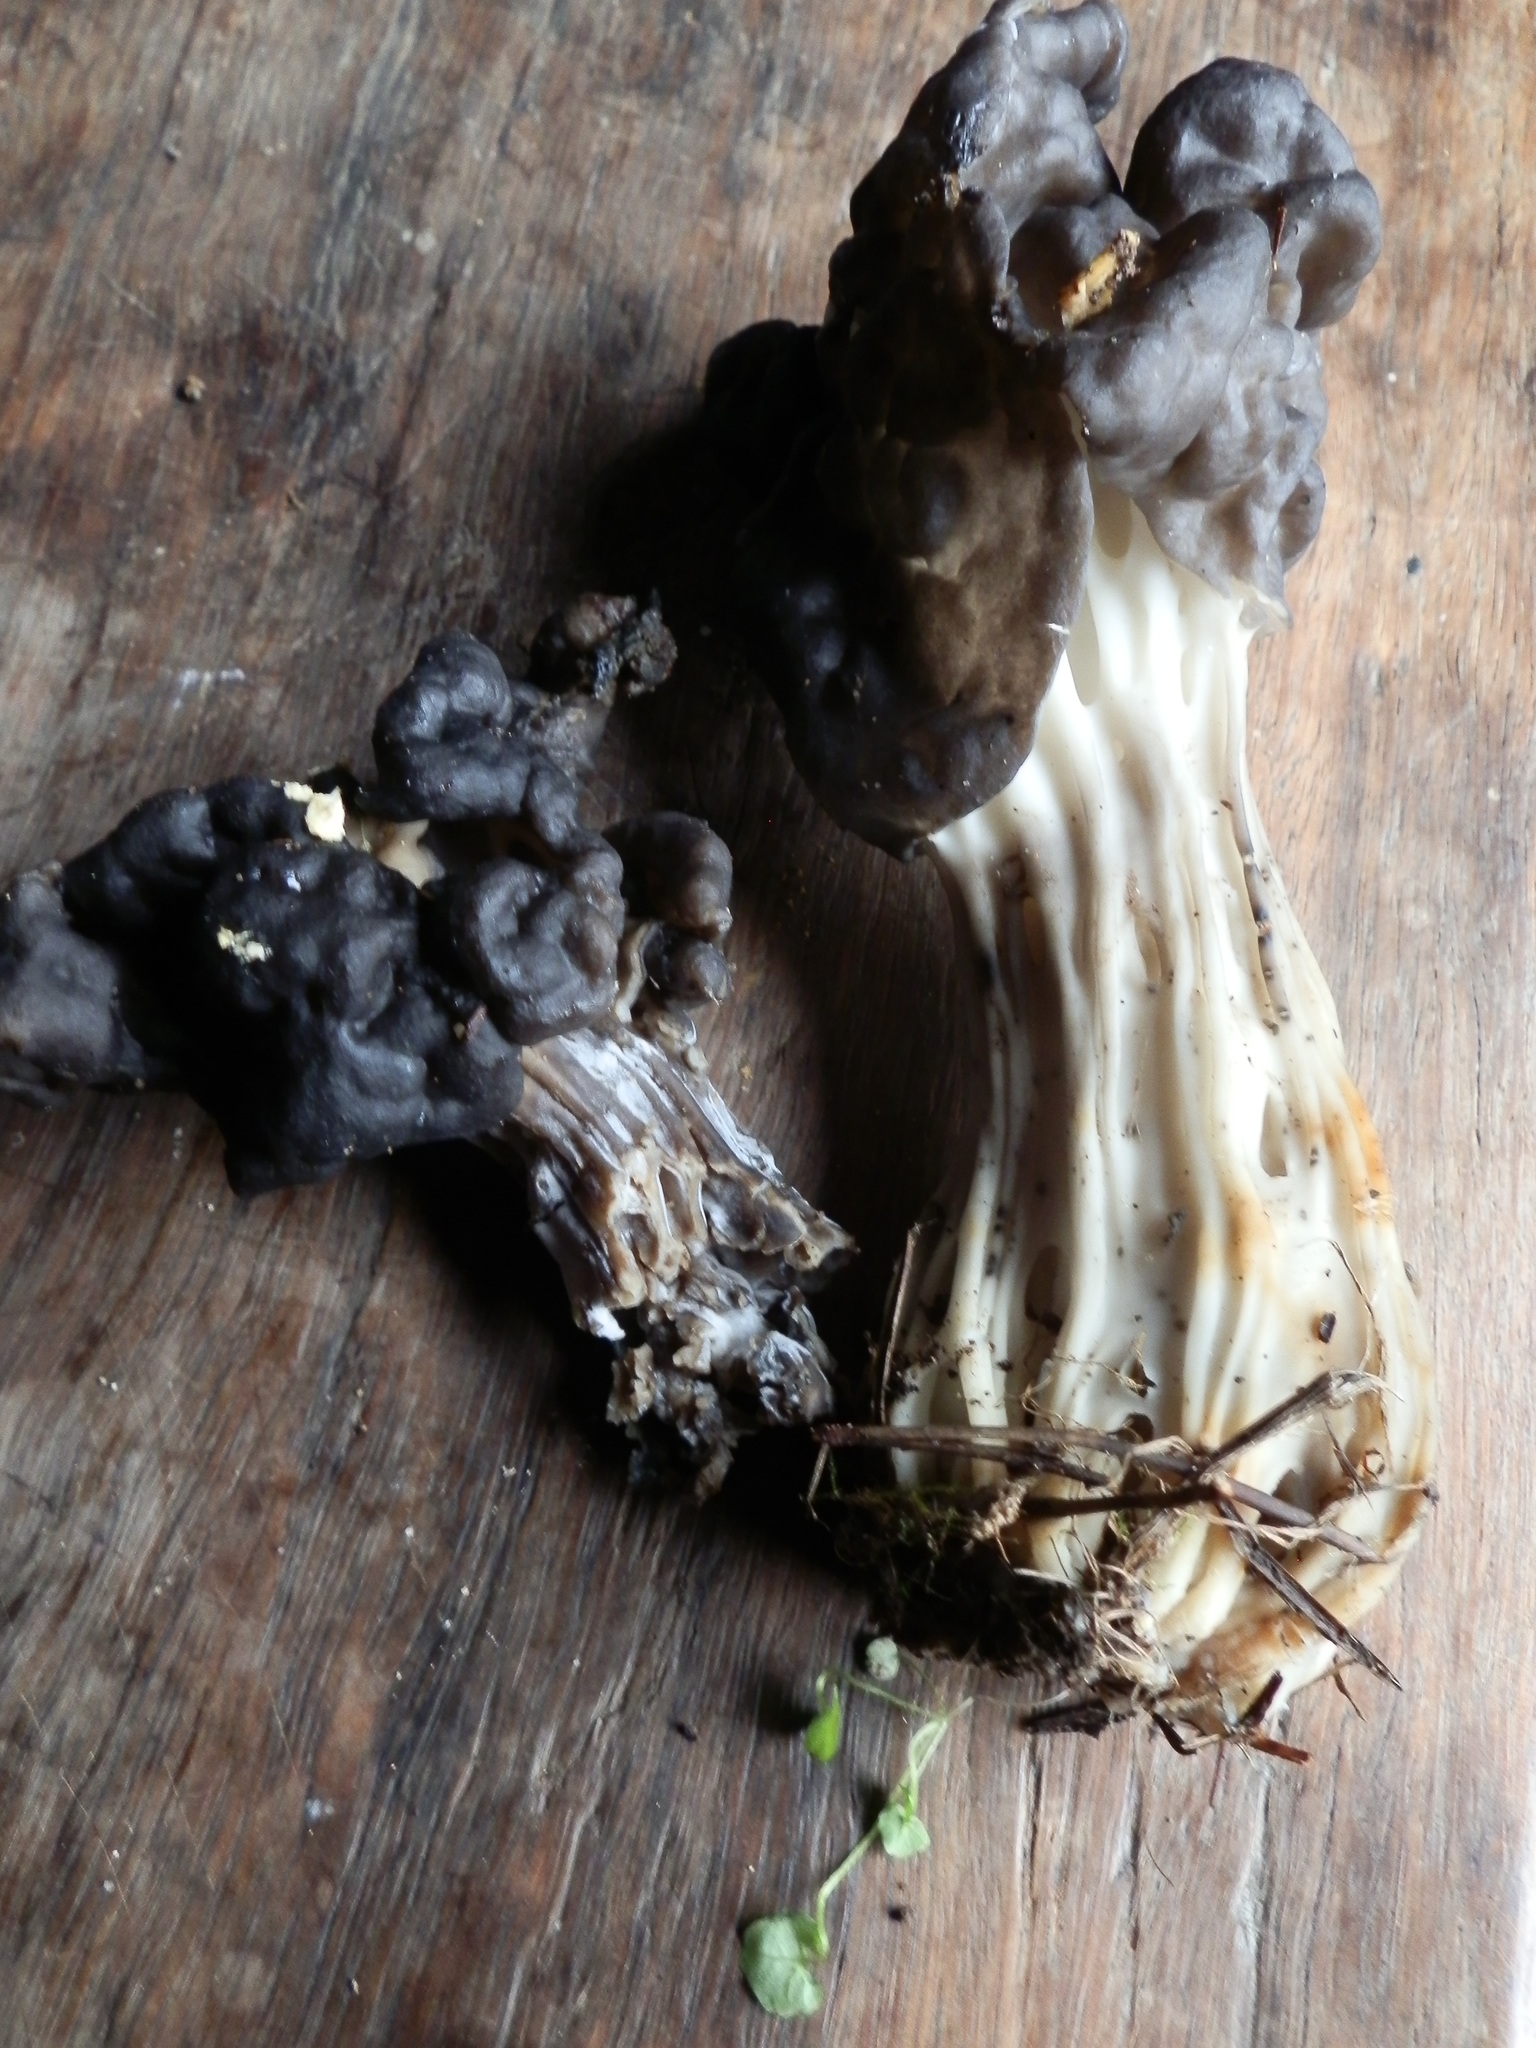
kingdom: Fungi
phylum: Ascomycota
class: Pezizomycetes
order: Pezizales
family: Helvellaceae
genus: Helvella
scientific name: Helvella vespertina
